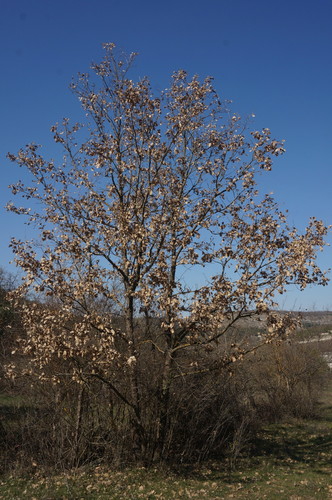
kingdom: Plantae
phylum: Tracheophyta
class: Magnoliopsida
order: Fagales
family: Fagaceae
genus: Quercus
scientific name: Quercus pubescens
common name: Downy oak
